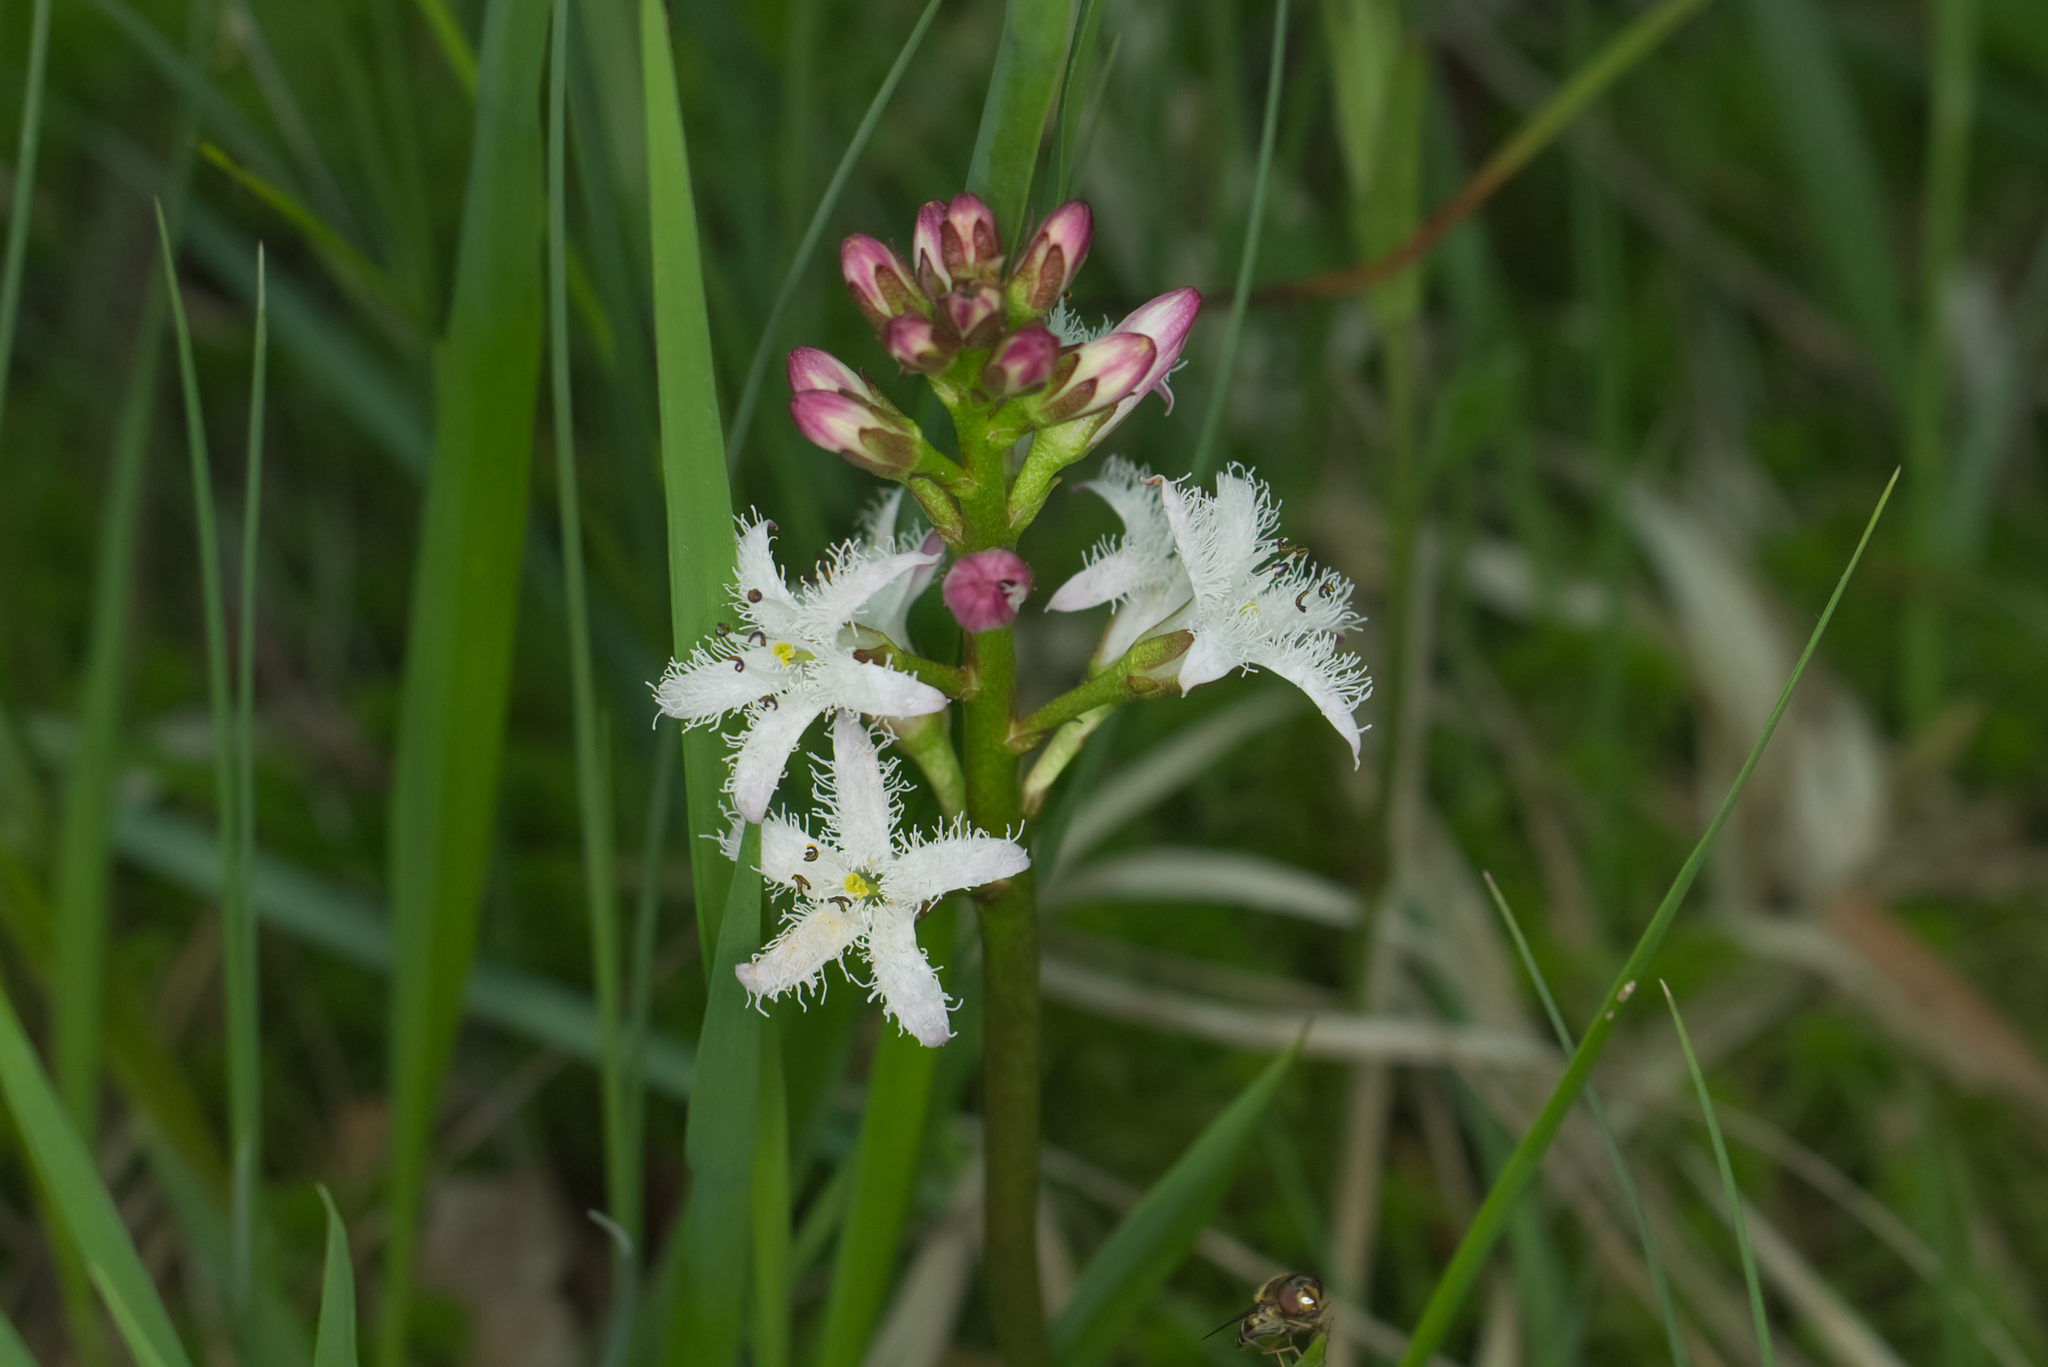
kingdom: Plantae
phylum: Tracheophyta
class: Magnoliopsida
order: Asterales
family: Menyanthaceae
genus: Menyanthes
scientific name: Menyanthes trifoliata
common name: Bogbean
